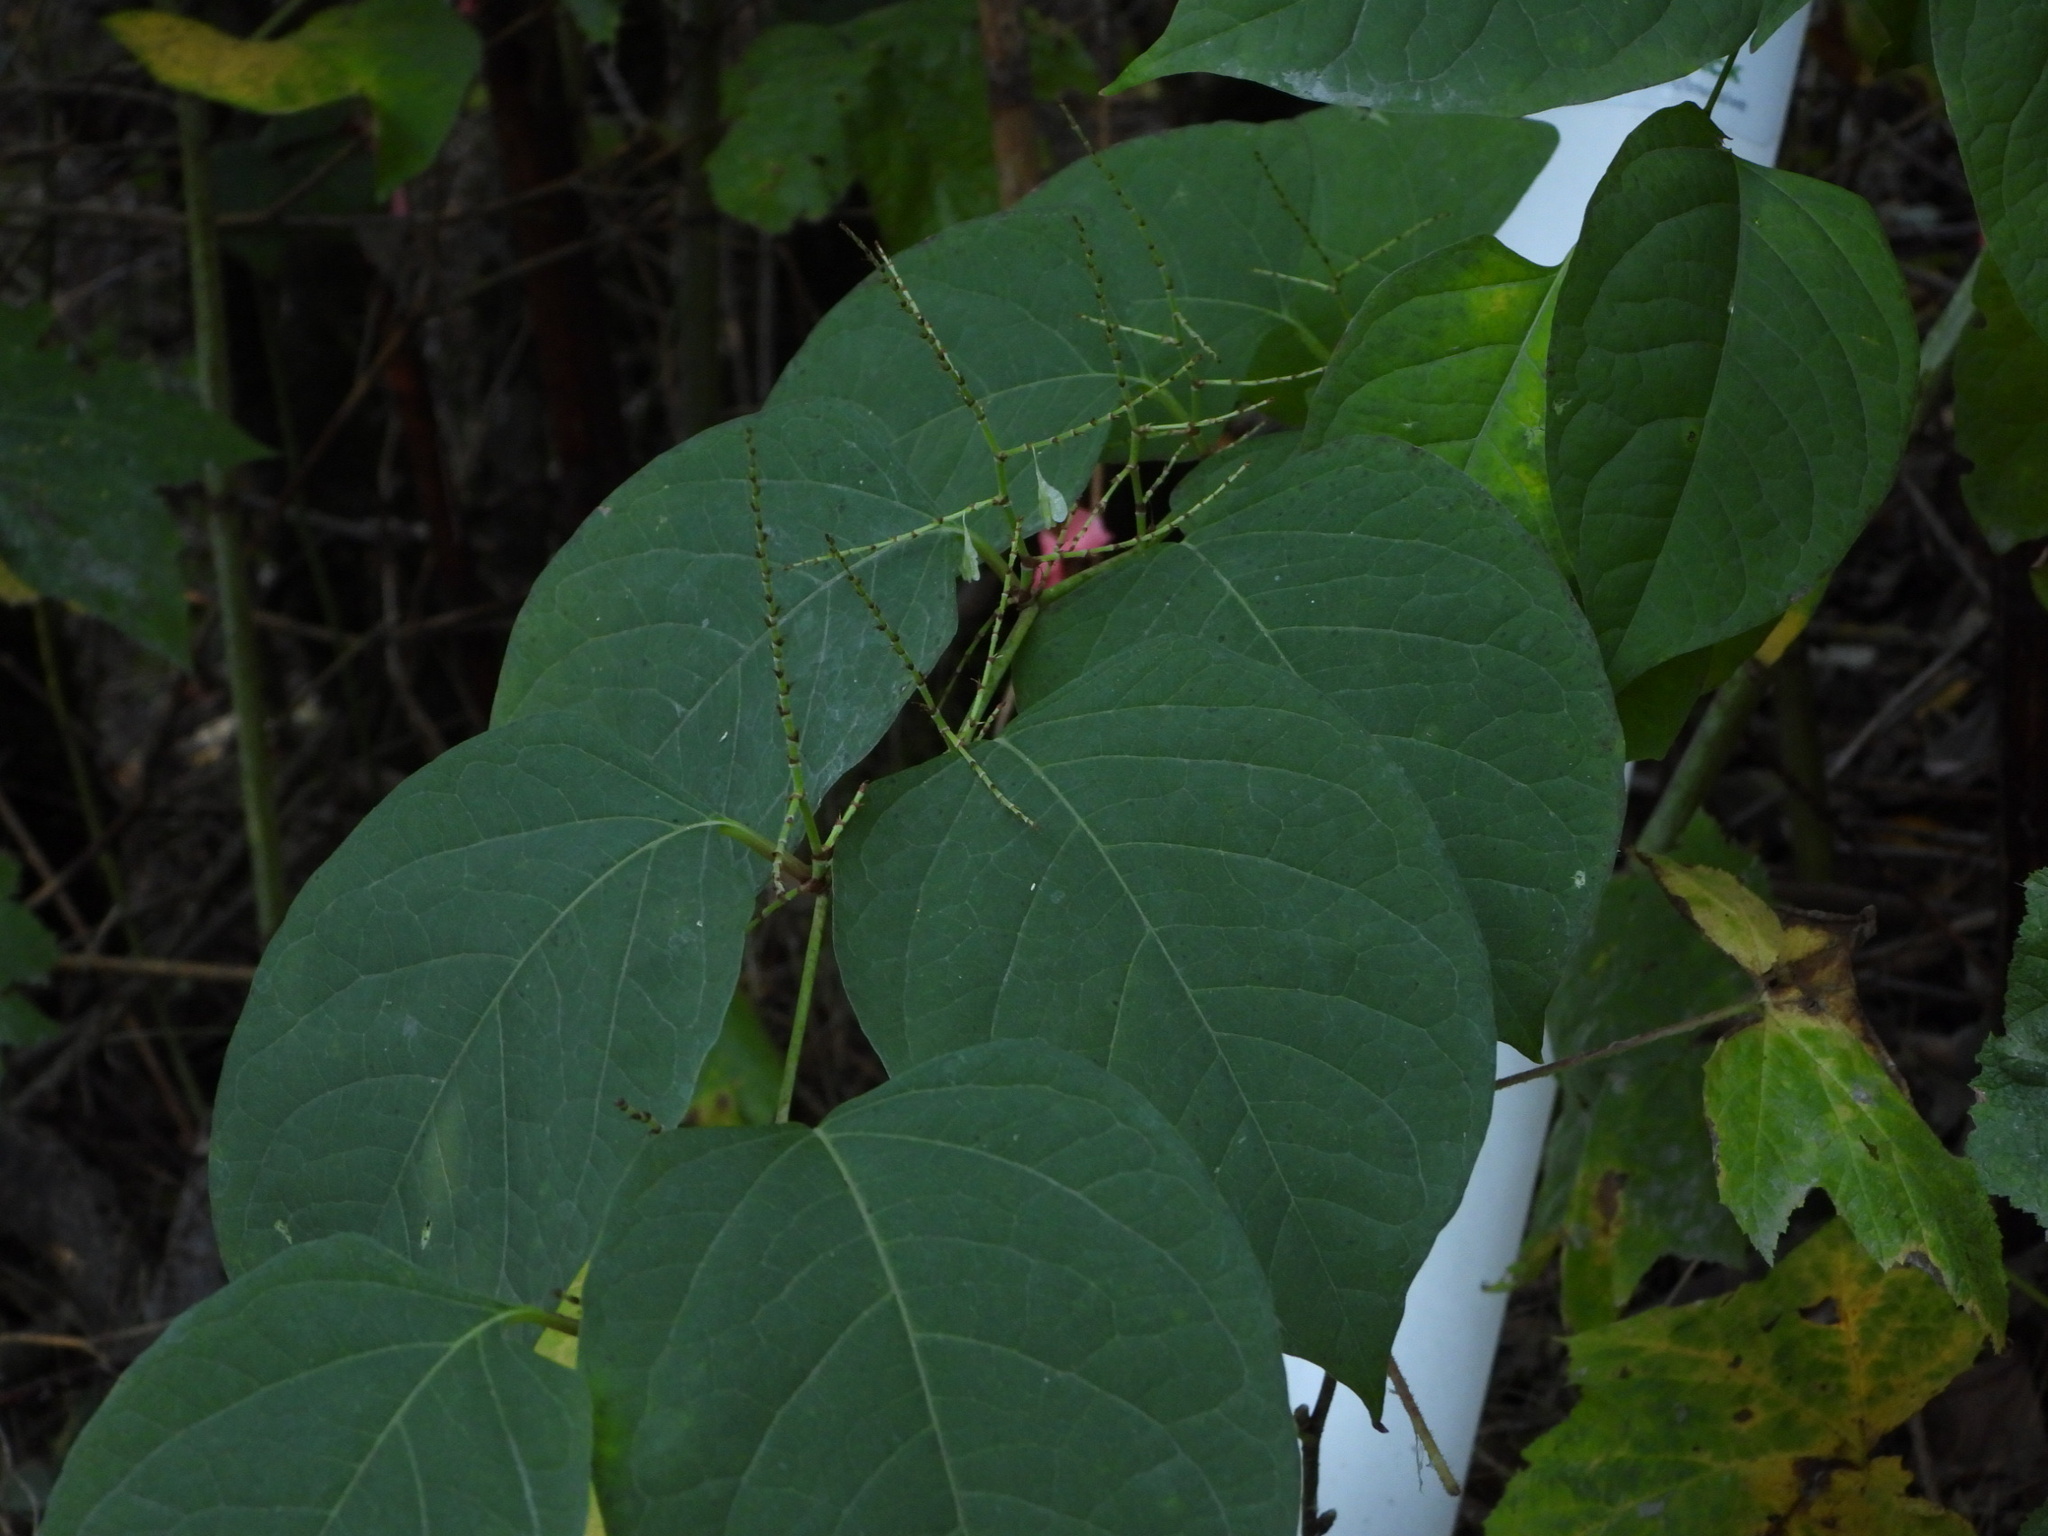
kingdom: Plantae
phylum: Tracheophyta
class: Magnoliopsida
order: Caryophyllales
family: Polygonaceae
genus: Reynoutria
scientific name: Reynoutria japonica
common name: Japanese knotweed
